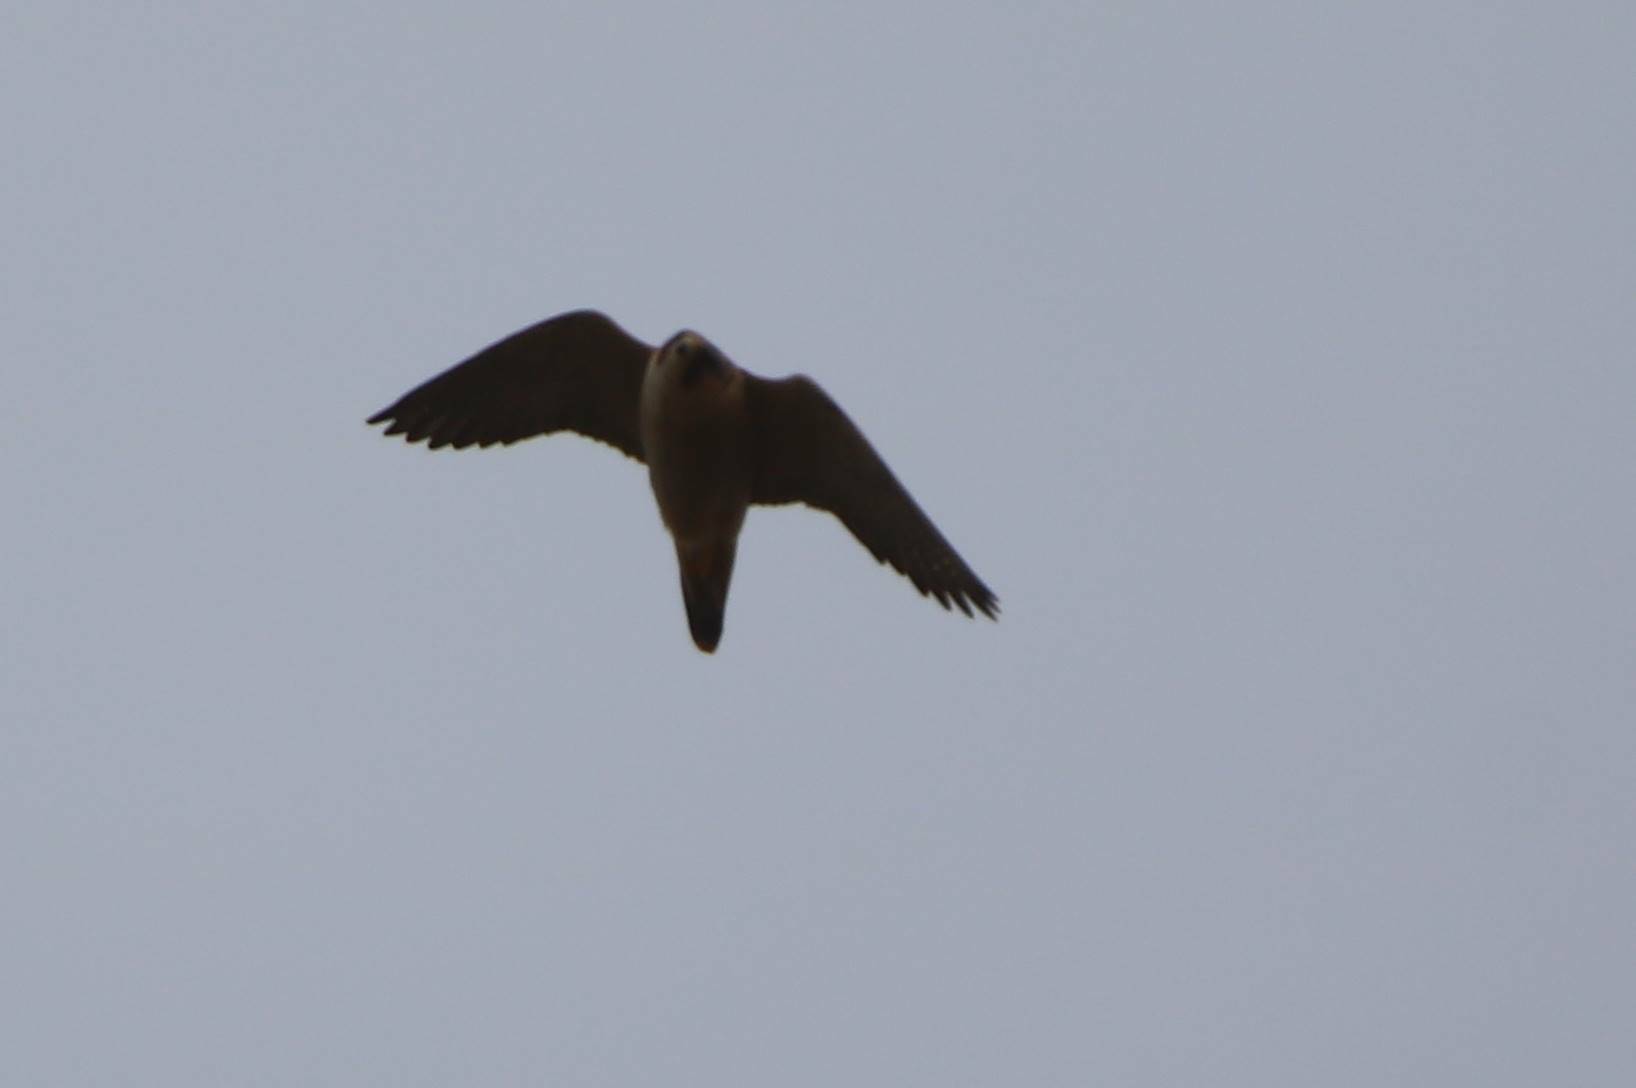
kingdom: Animalia
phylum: Chordata
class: Aves
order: Falconiformes
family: Falconidae
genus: Falco
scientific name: Falco peregrinus
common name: Peregrine falcon
